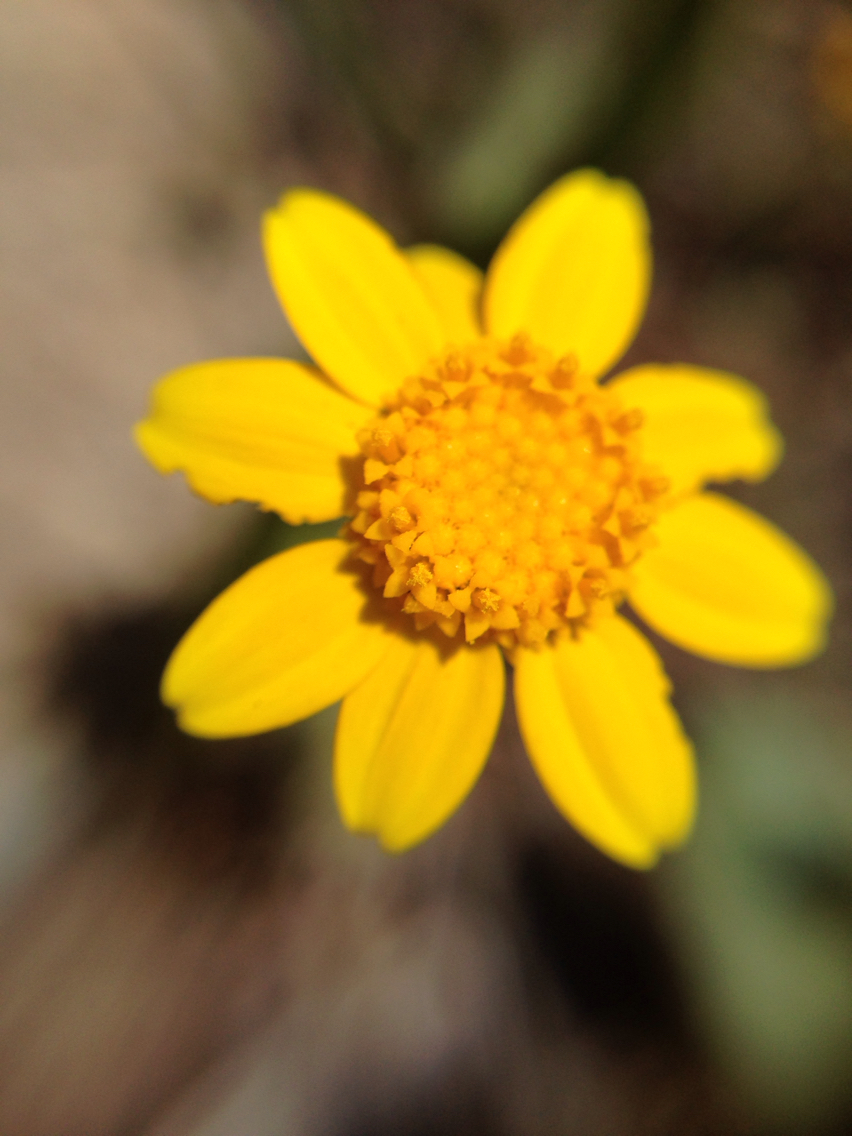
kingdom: Plantae
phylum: Tracheophyta
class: Magnoliopsida
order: Asterales
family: Asteraceae
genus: Monolopia
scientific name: Monolopia gracilens
